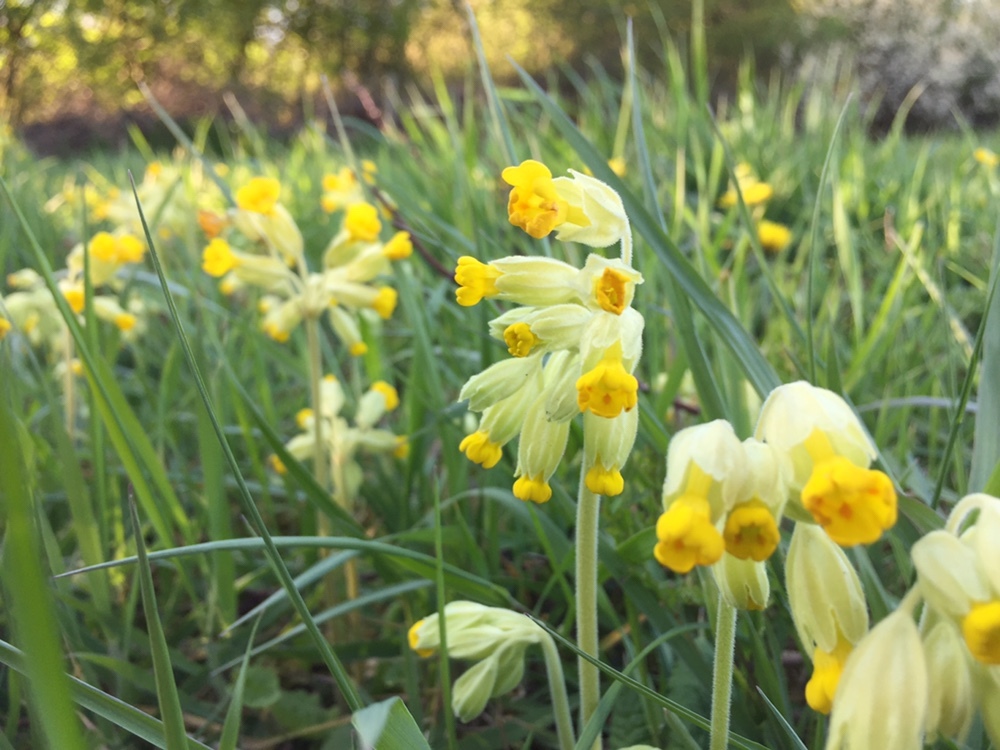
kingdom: Plantae
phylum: Tracheophyta
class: Magnoliopsida
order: Ericales
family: Primulaceae
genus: Primula
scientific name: Primula veris
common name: Cowslip
